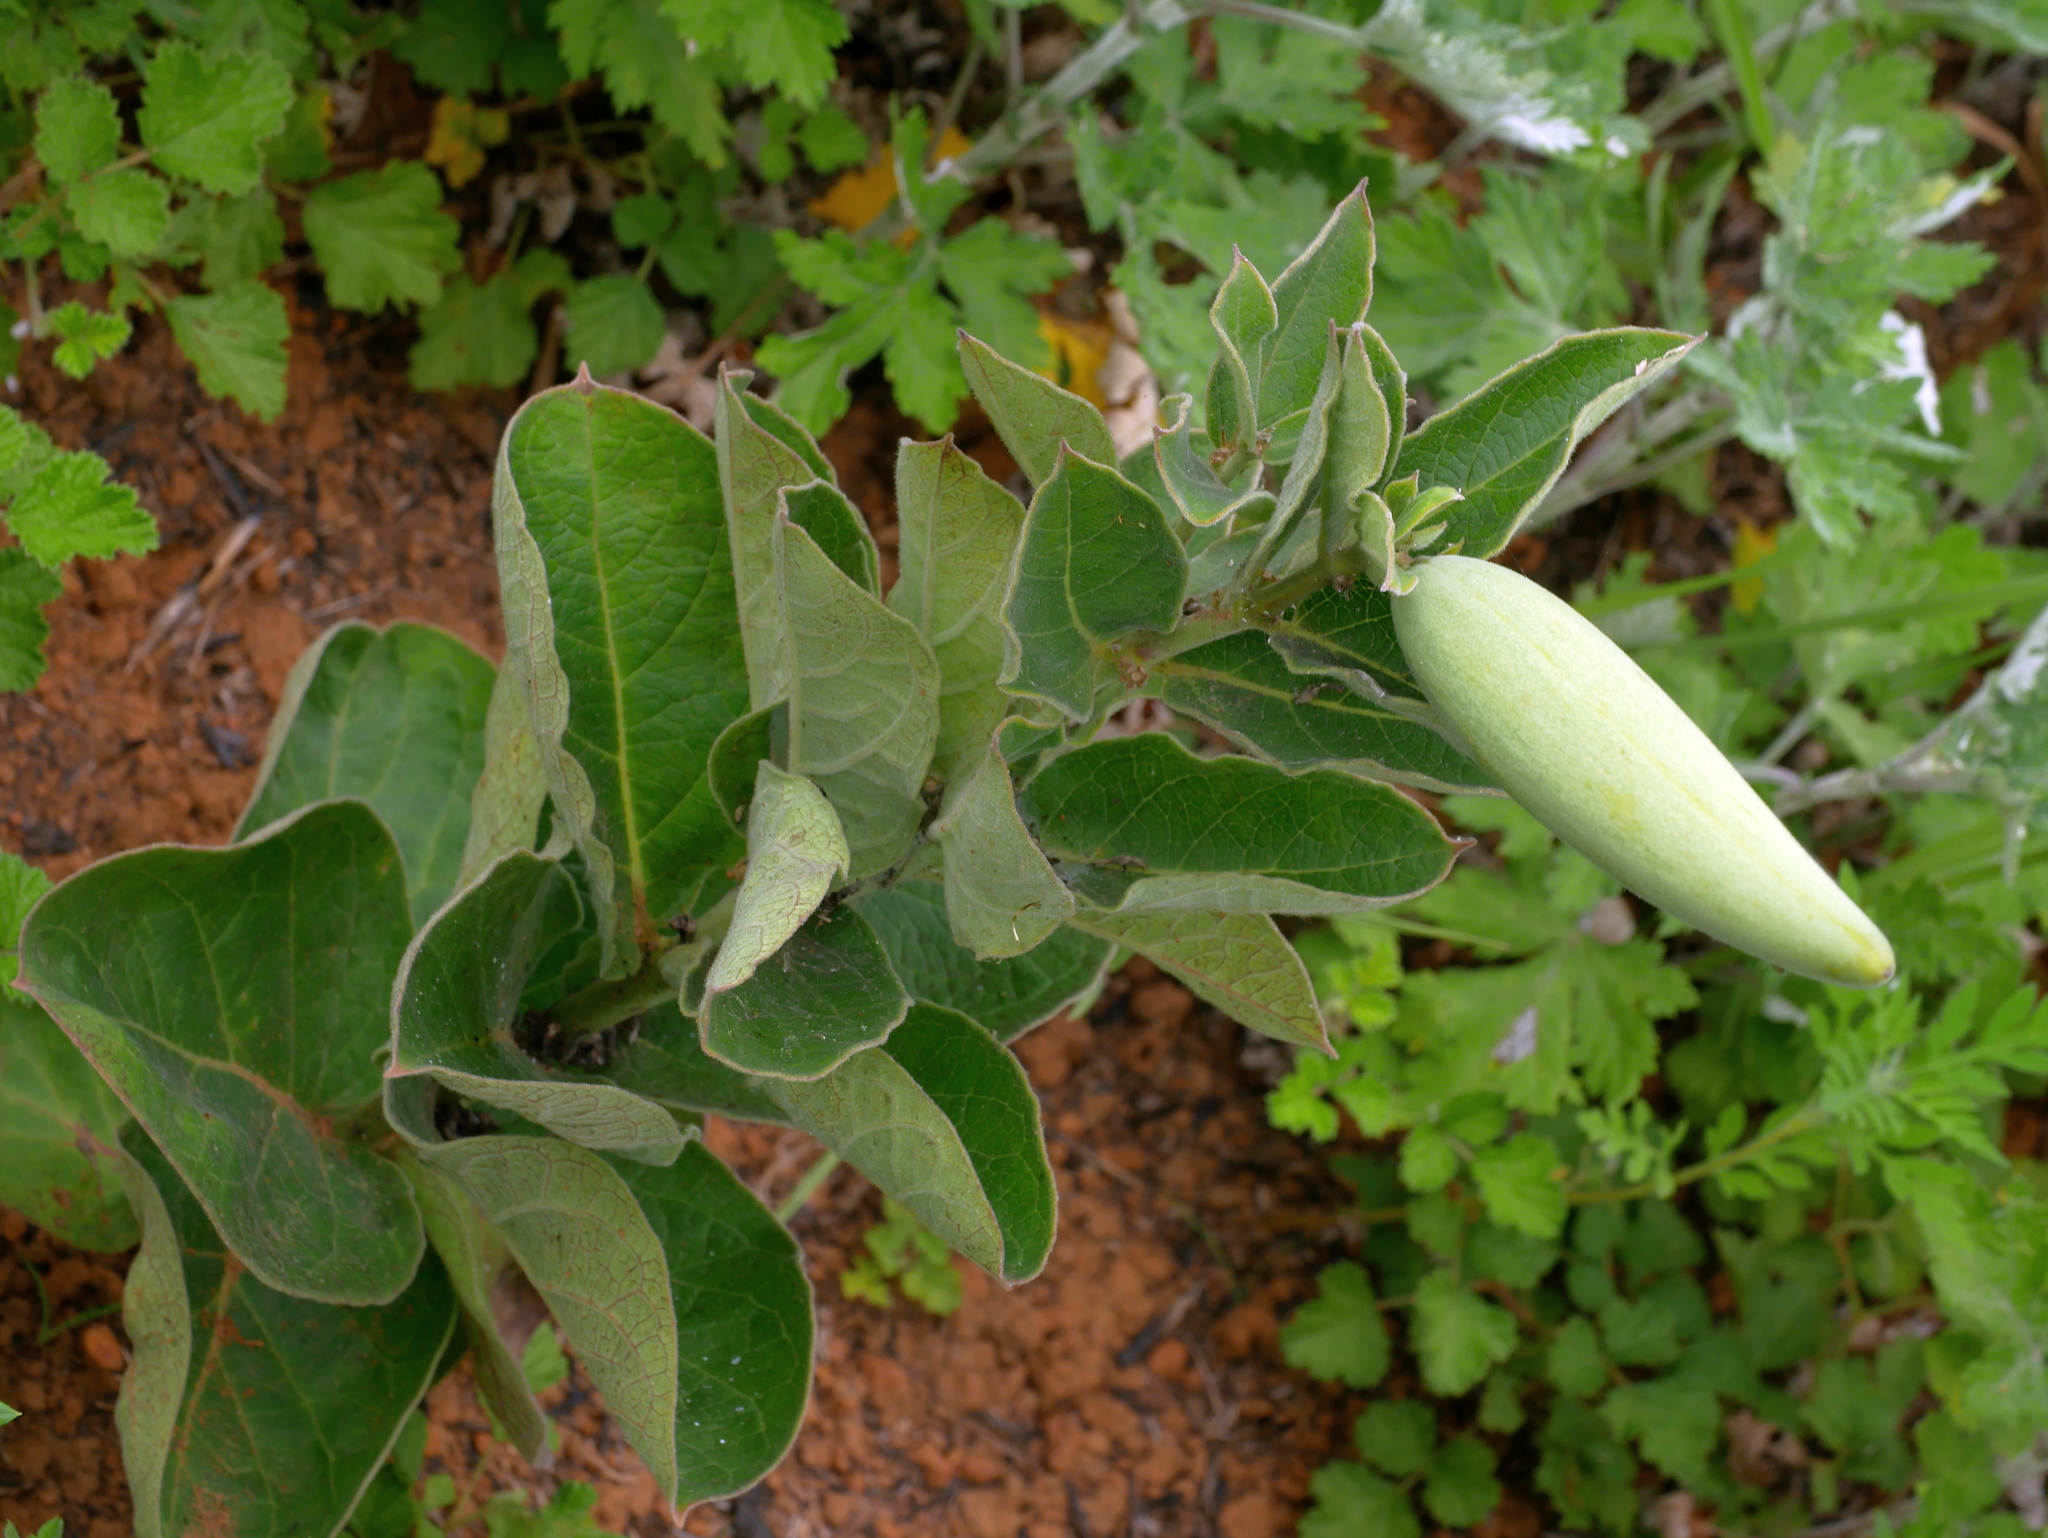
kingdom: Plantae
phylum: Tracheophyta
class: Magnoliopsida
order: Gentianales
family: Apocynaceae
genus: Vincetoxicum
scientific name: Vincetoxicum atratum
